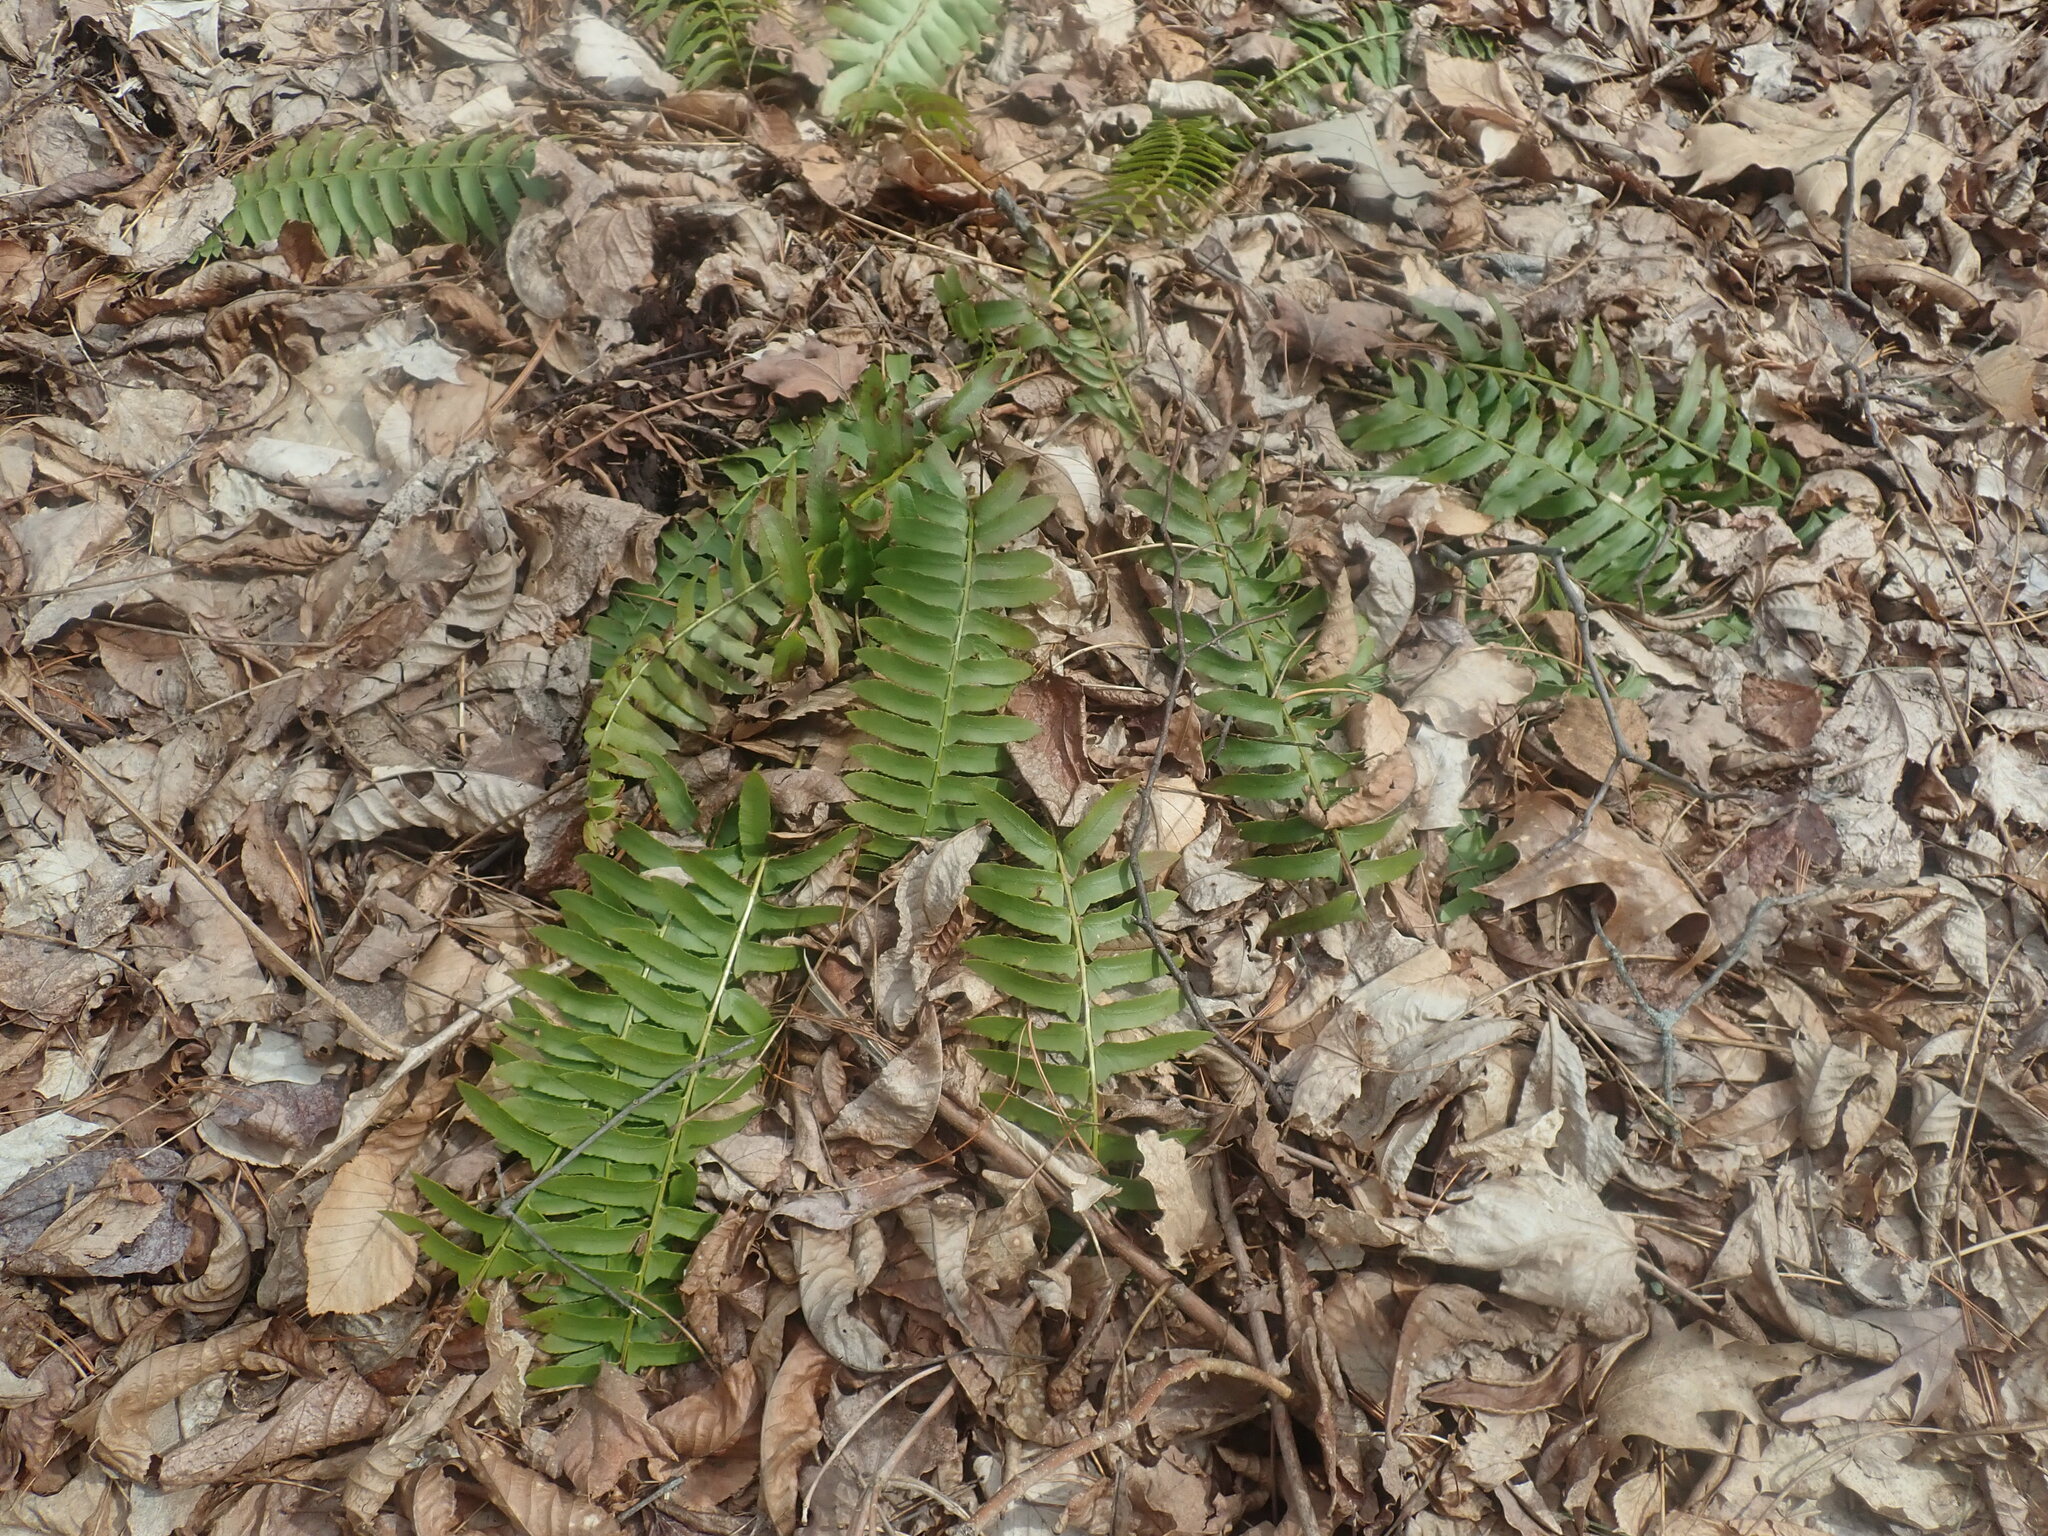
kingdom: Plantae
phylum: Tracheophyta
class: Polypodiopsida
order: Polypodiales
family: Dryopteridaceae
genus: Polystichum
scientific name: Polystichum acrostichoides
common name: Christmas fern
